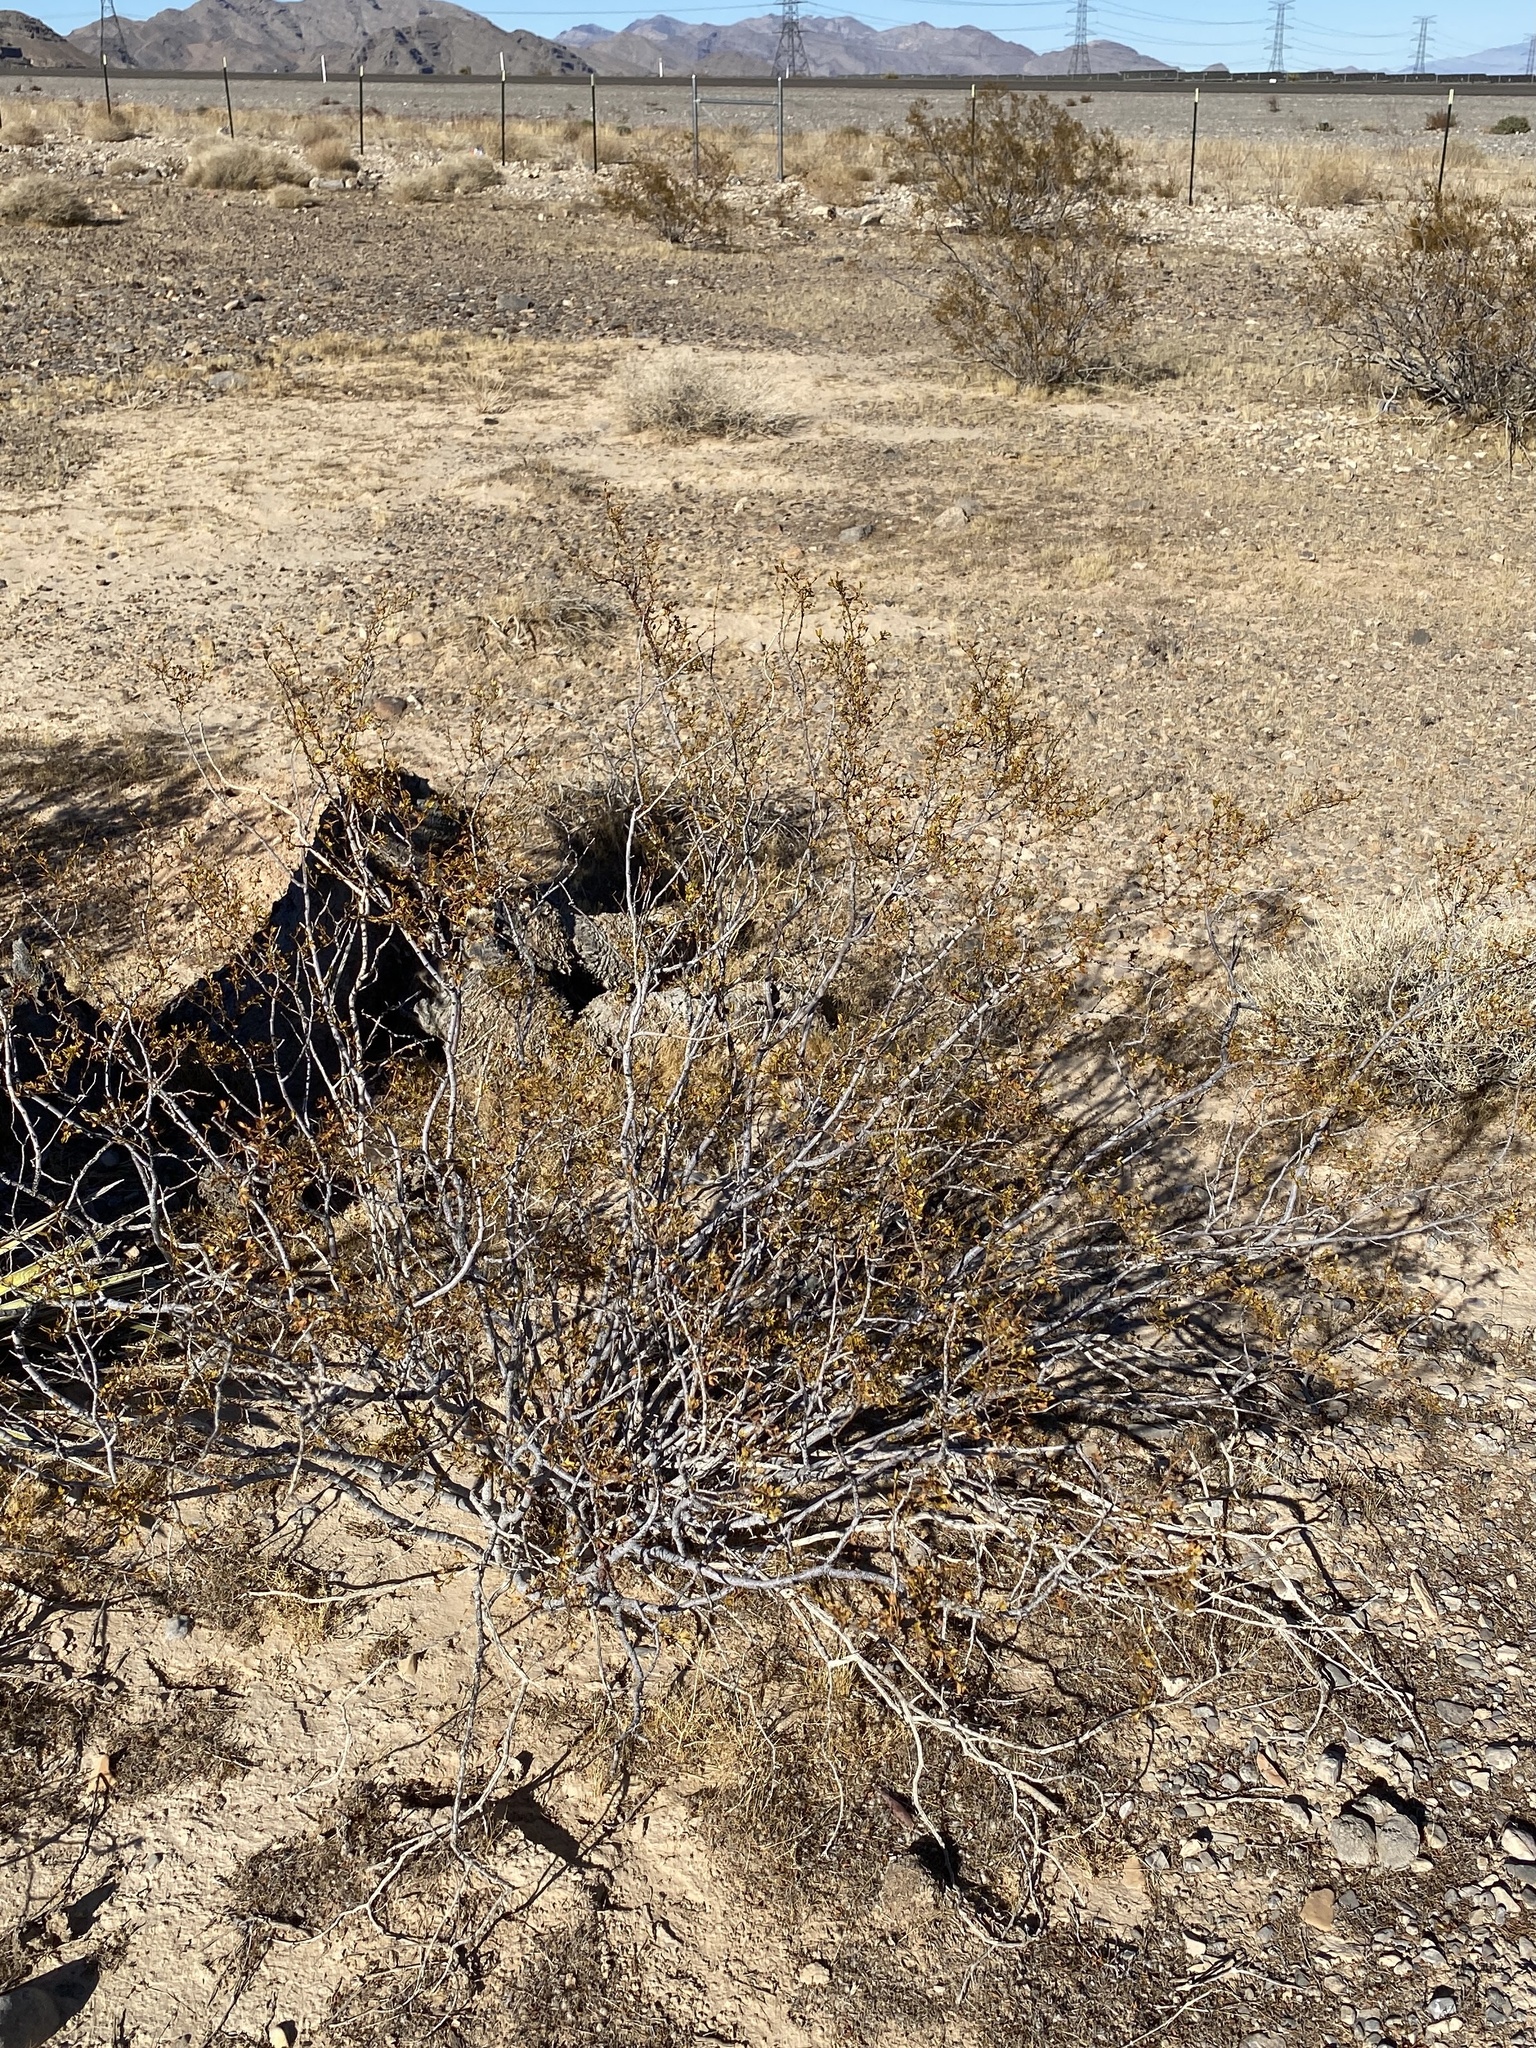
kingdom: Plantae
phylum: Tracheophyta
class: Magnoliopsida
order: Zygophyllales
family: Zygophyllaceae
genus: Larrea
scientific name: Larrea tridentata
